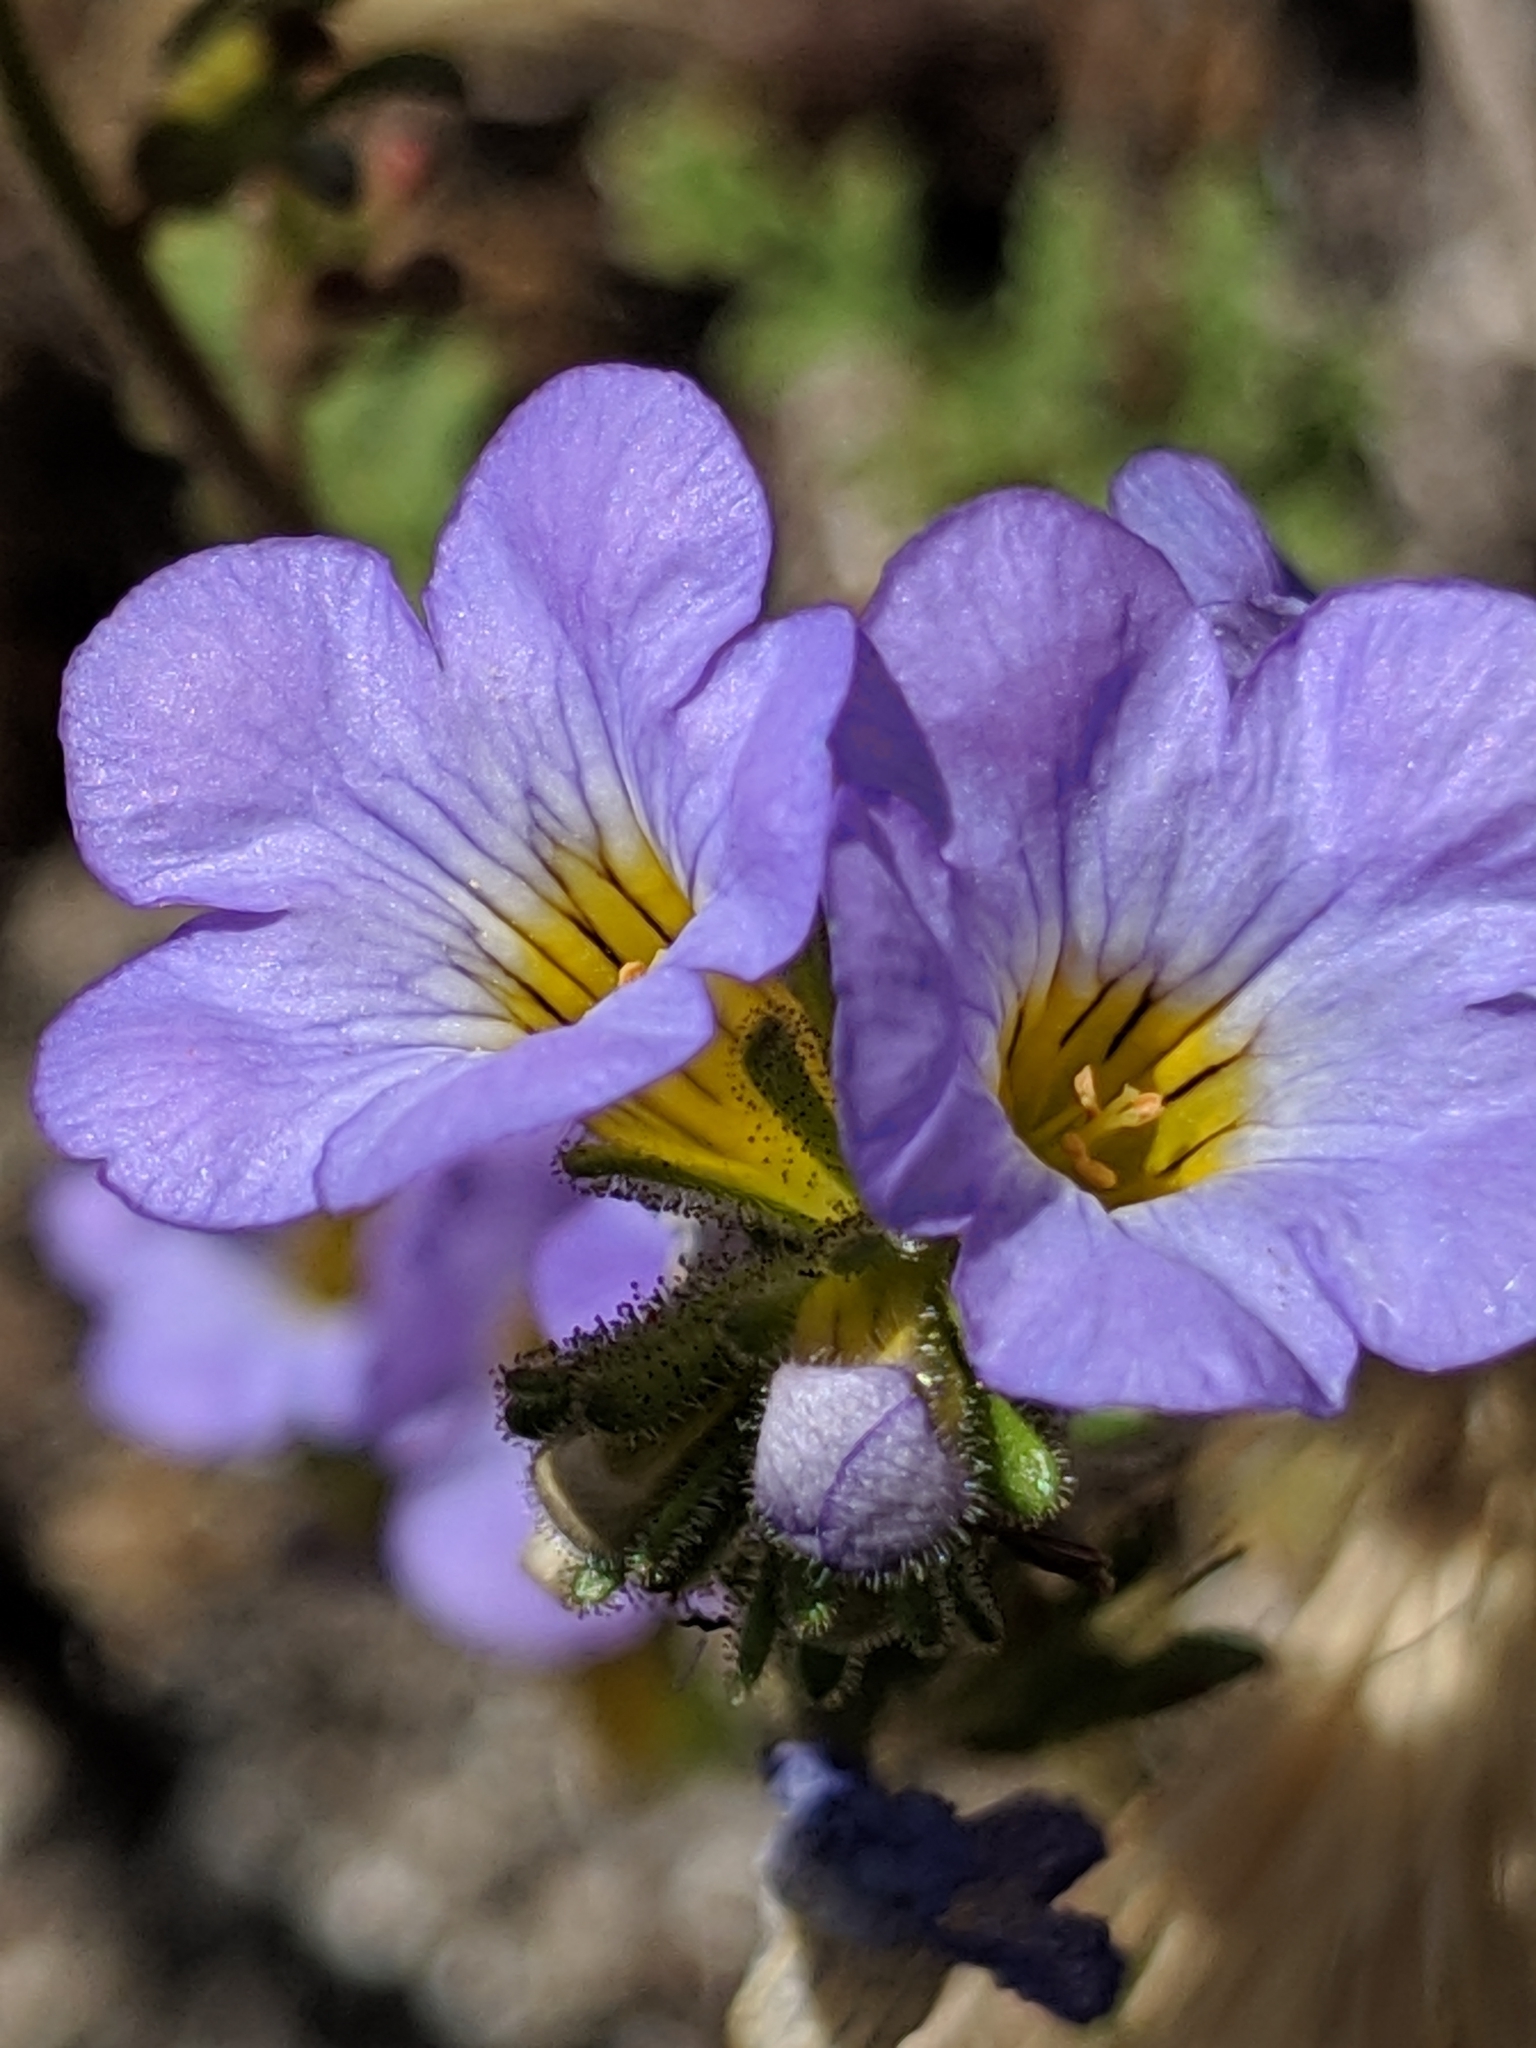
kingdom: Plantae
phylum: Tracheophyta
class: Magnoliopsida
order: Boraginales
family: Hydrophyllaceae
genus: Phacelia
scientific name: Phacelia fremontii
